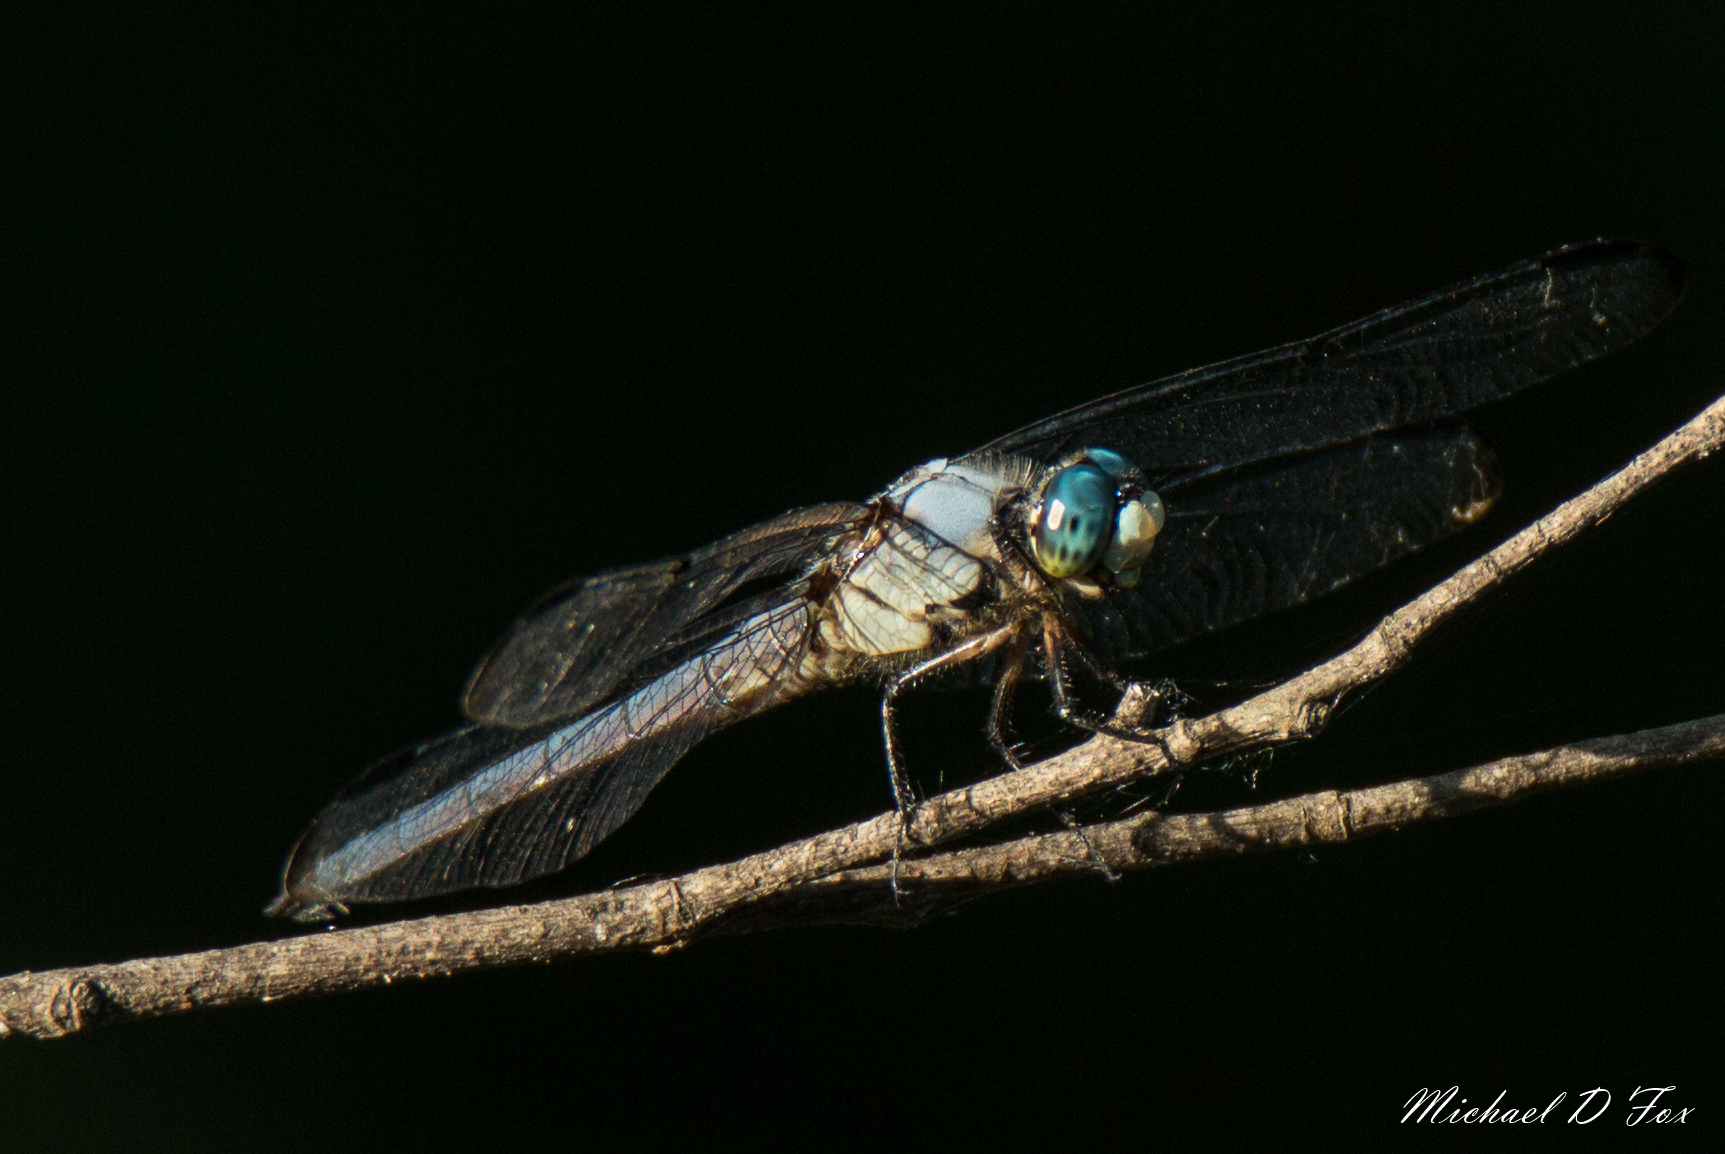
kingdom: Animalia
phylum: Arthropoda
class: Insecta
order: Odonata
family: Libellulidae
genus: Libellula
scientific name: Libellula vibrans
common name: Great blue skimmer
